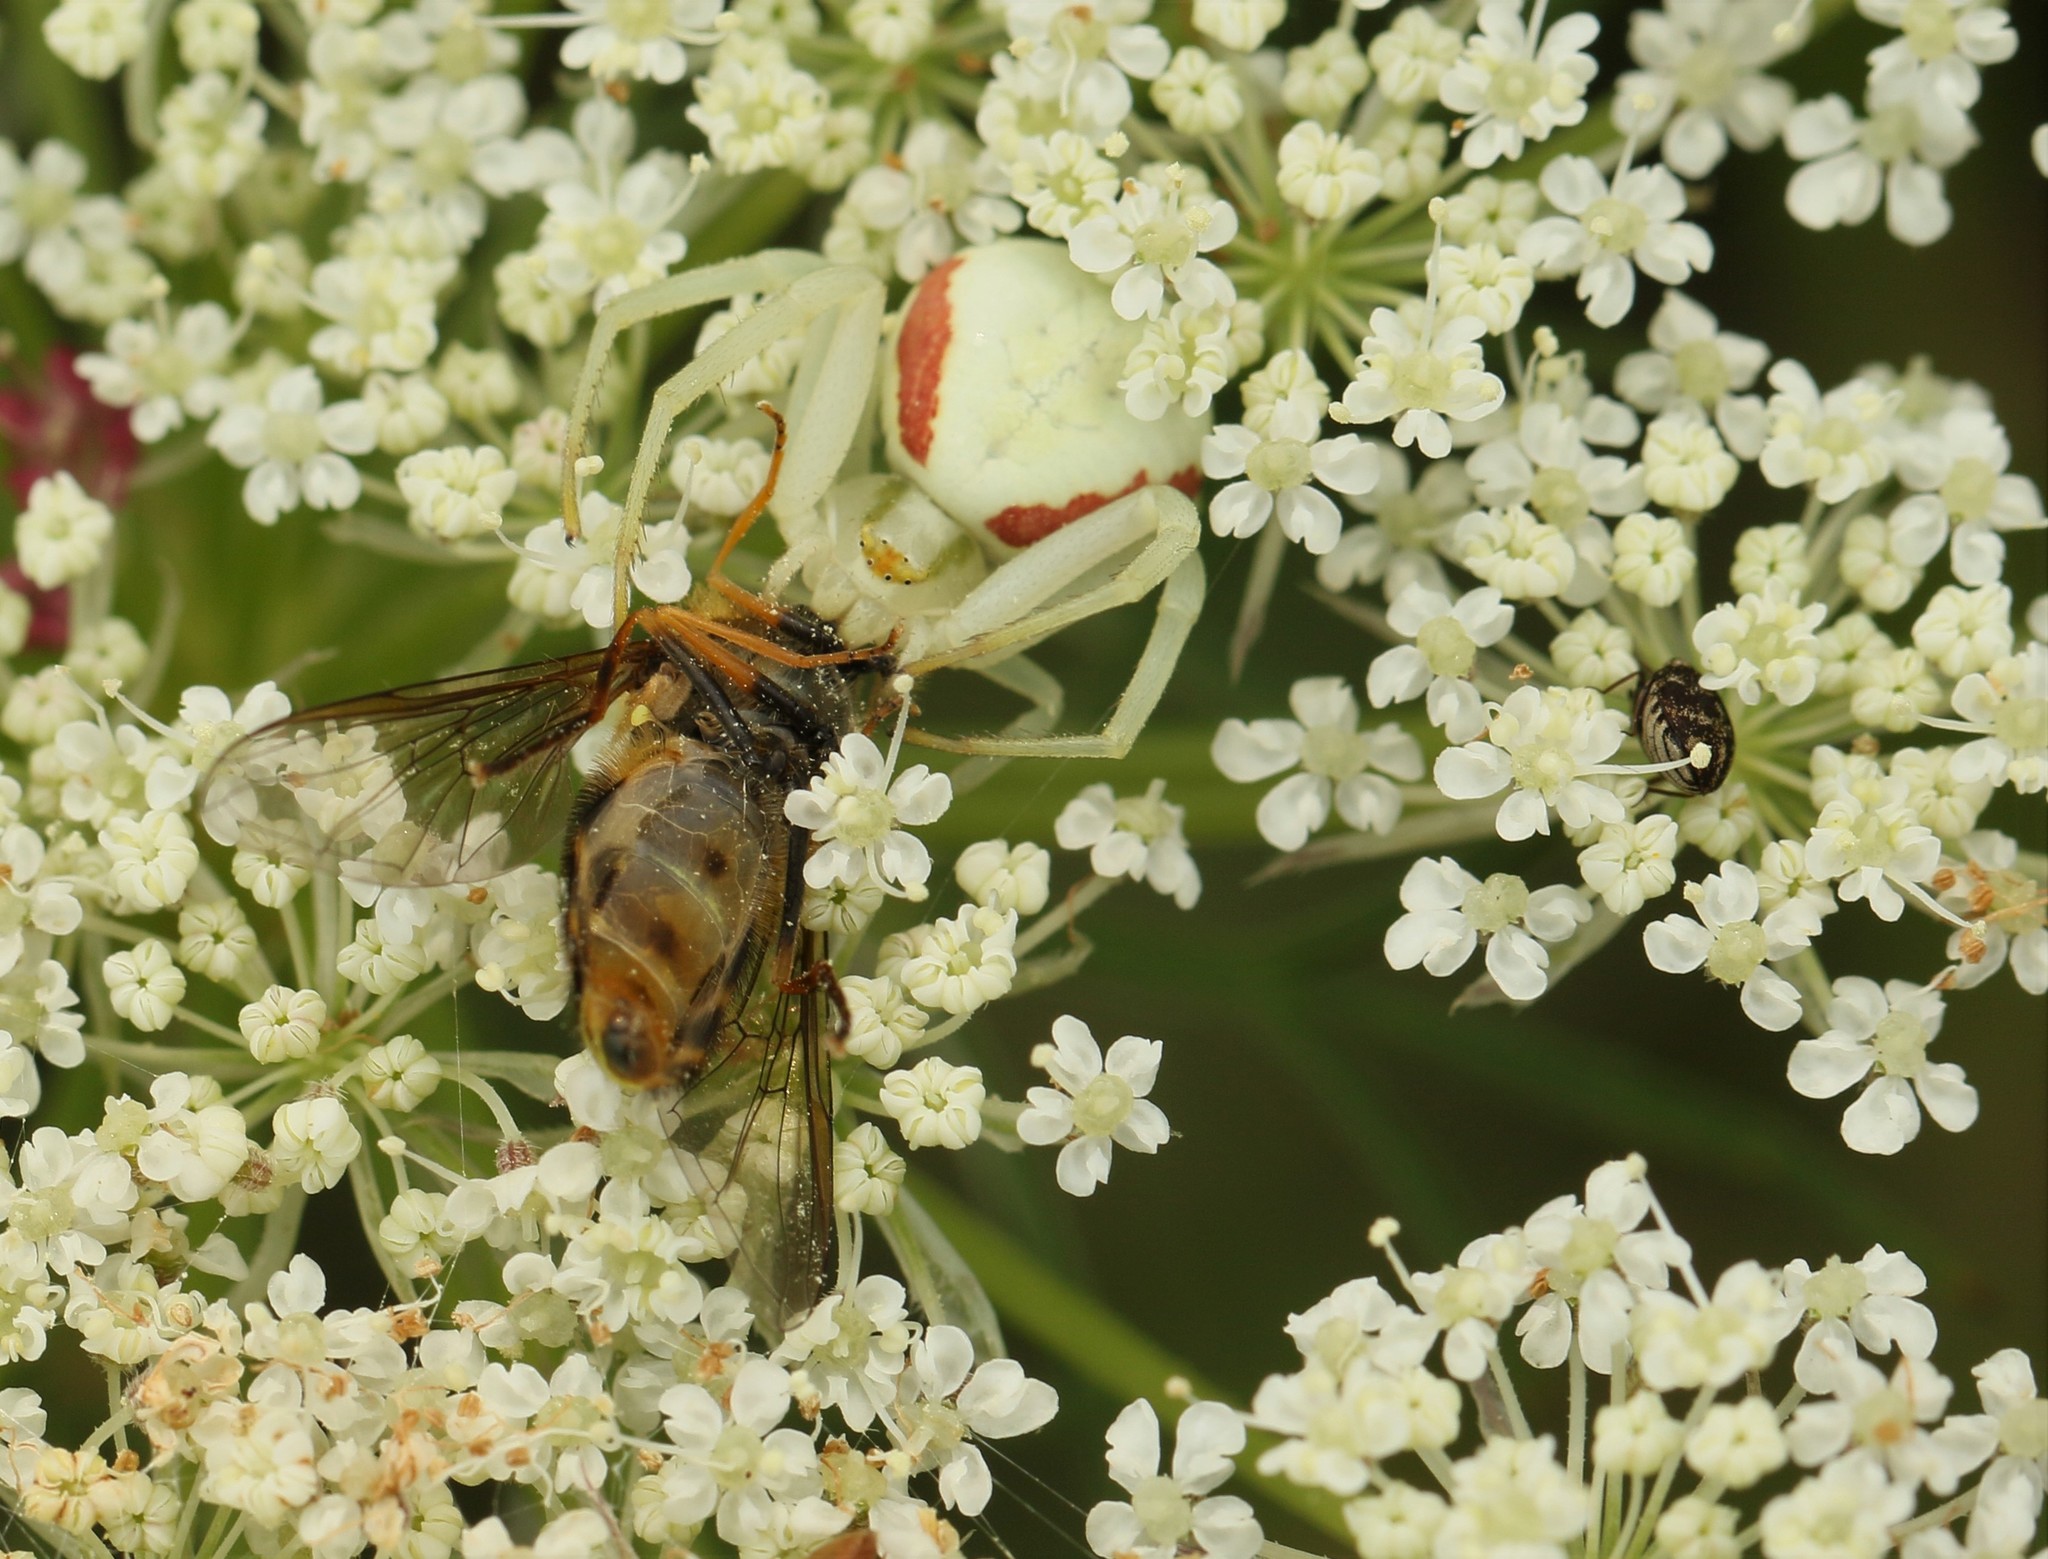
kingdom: Animalia
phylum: Arthropoda
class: Arachnida
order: Araneae
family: Thomisidae
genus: Misumena
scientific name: Misumena vatia
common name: Goldenrod crab spider
